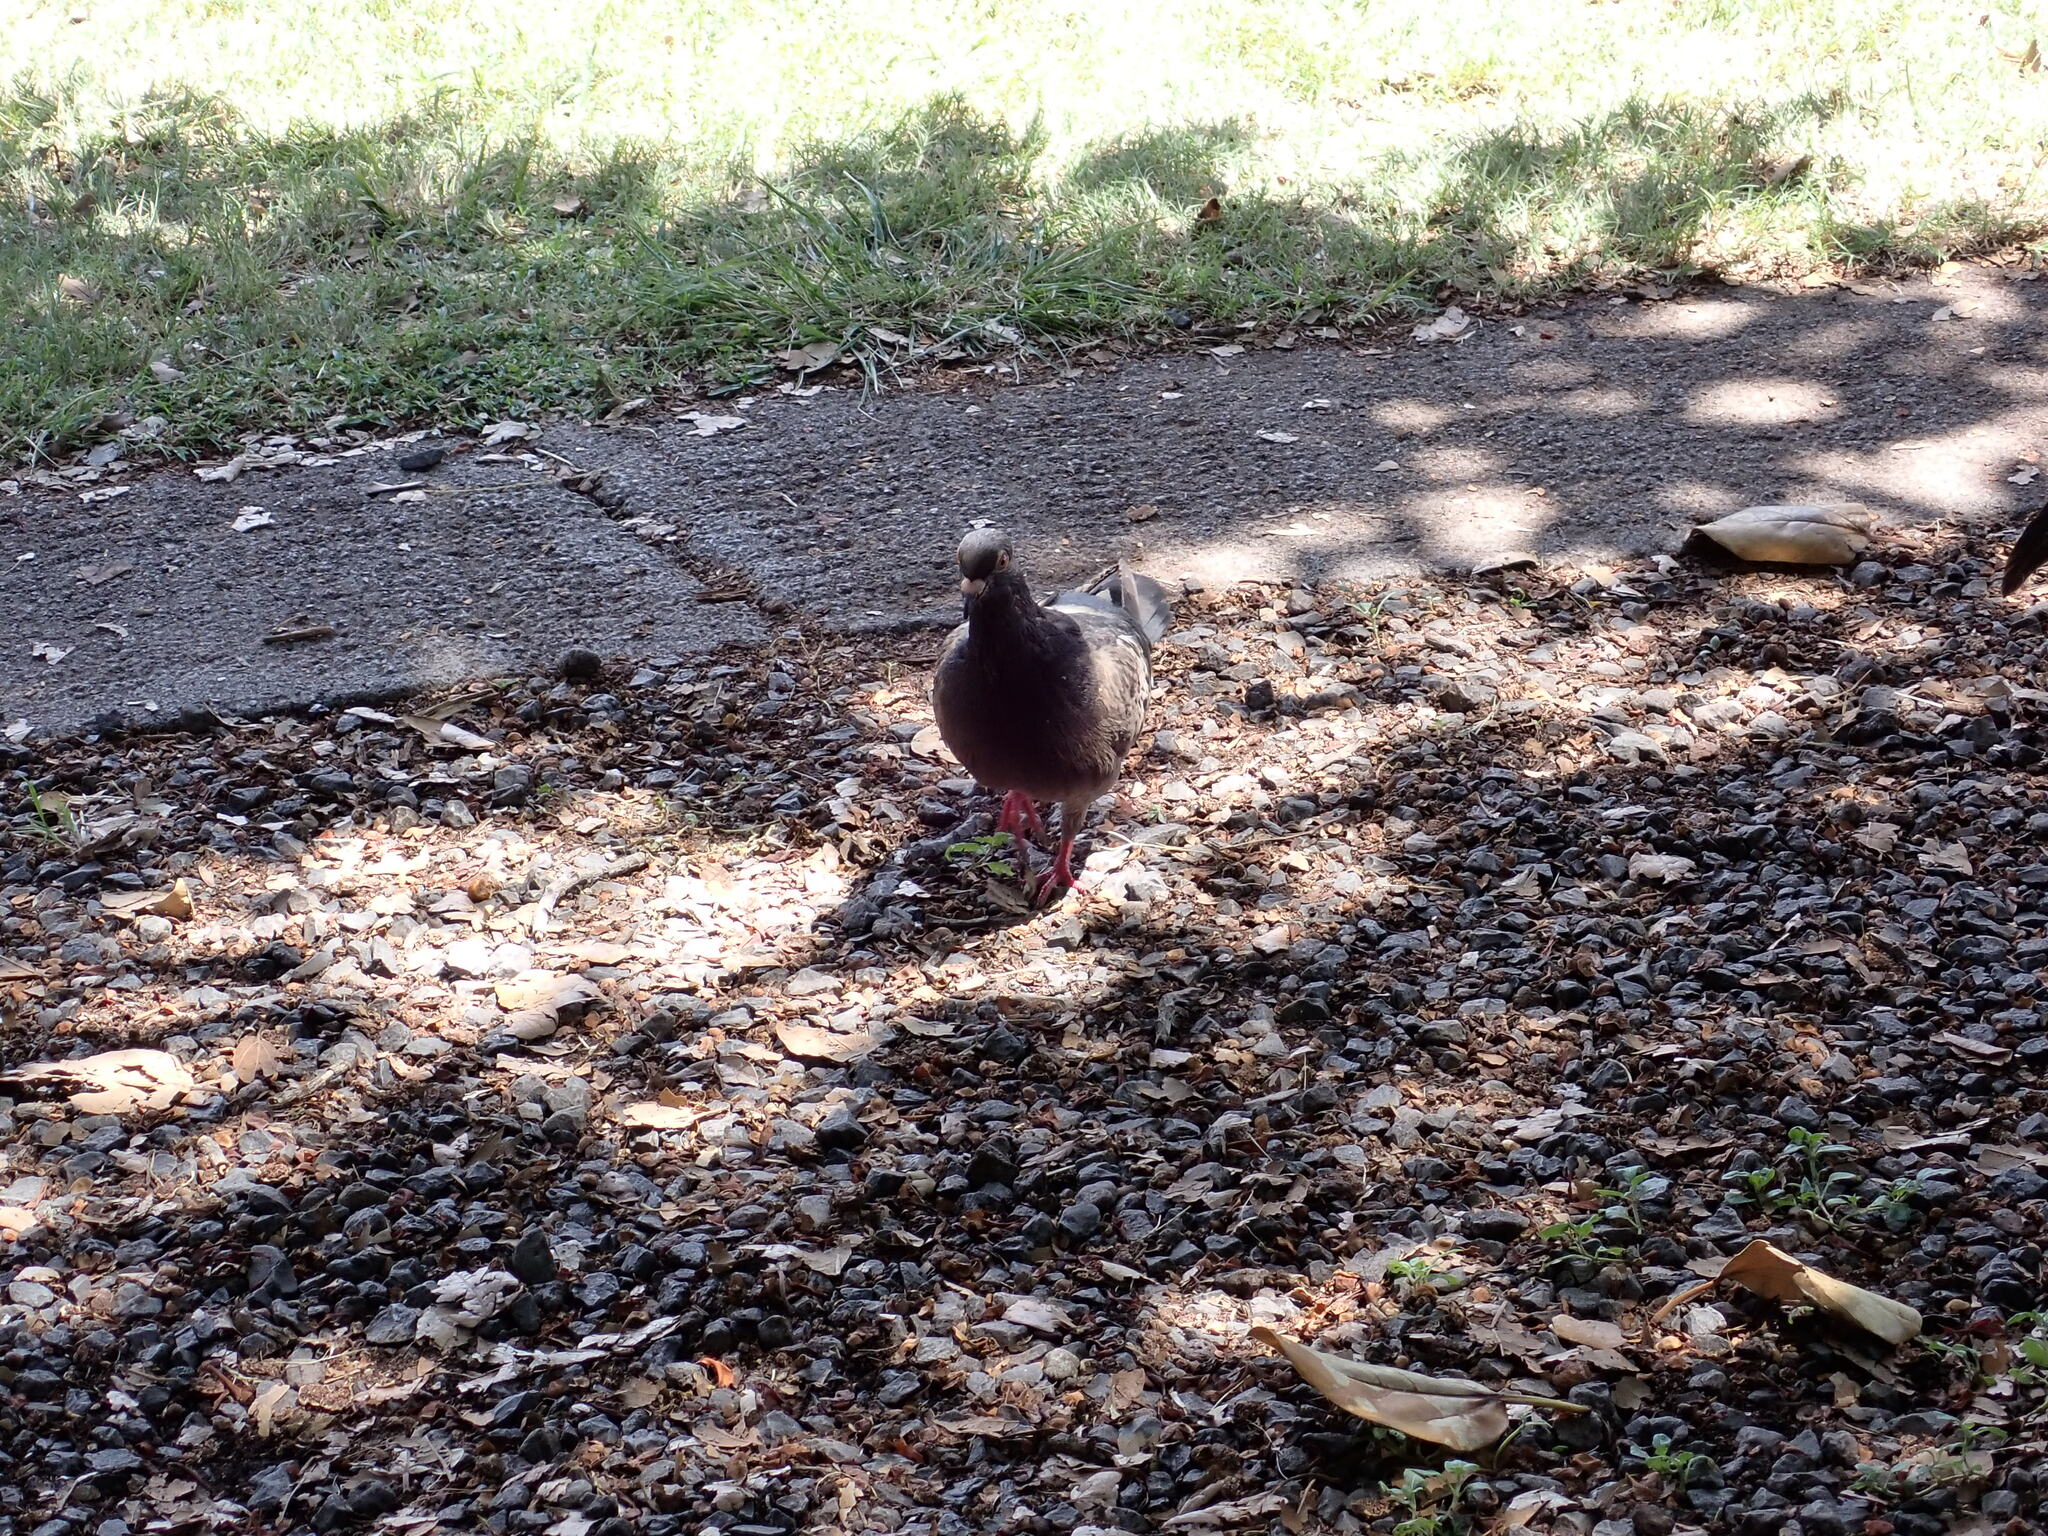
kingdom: Animalia
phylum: Chordata
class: Aves
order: Columbiformes
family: Columbidae
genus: Columba
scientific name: Columba livia
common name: Rock pigeon
